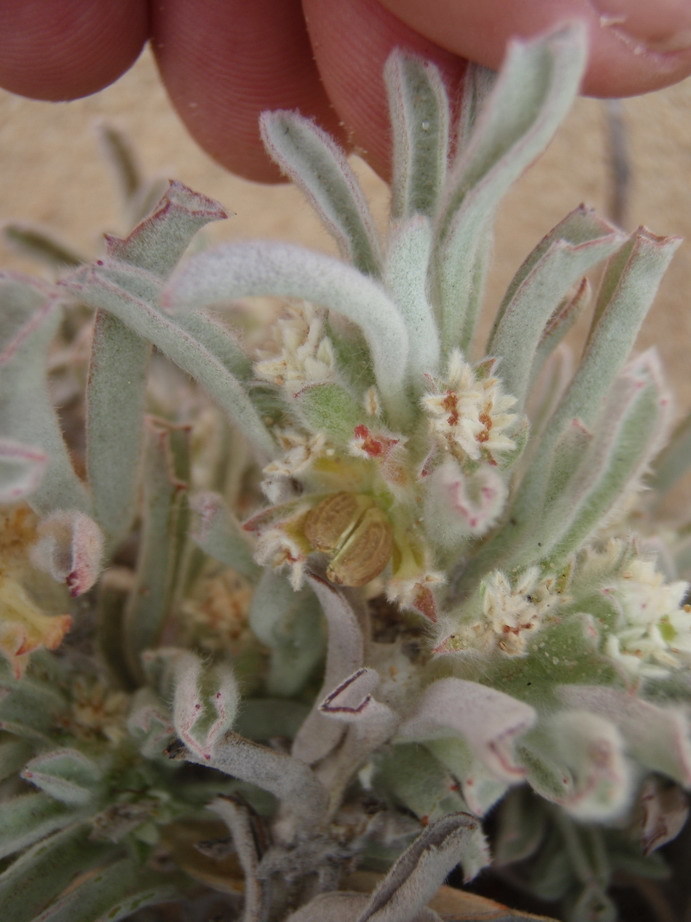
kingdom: Plantae
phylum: Tracheophyta
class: Magnoliopsida
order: Apiales
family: Apiaceae
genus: Centella
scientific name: Centella tridentata
